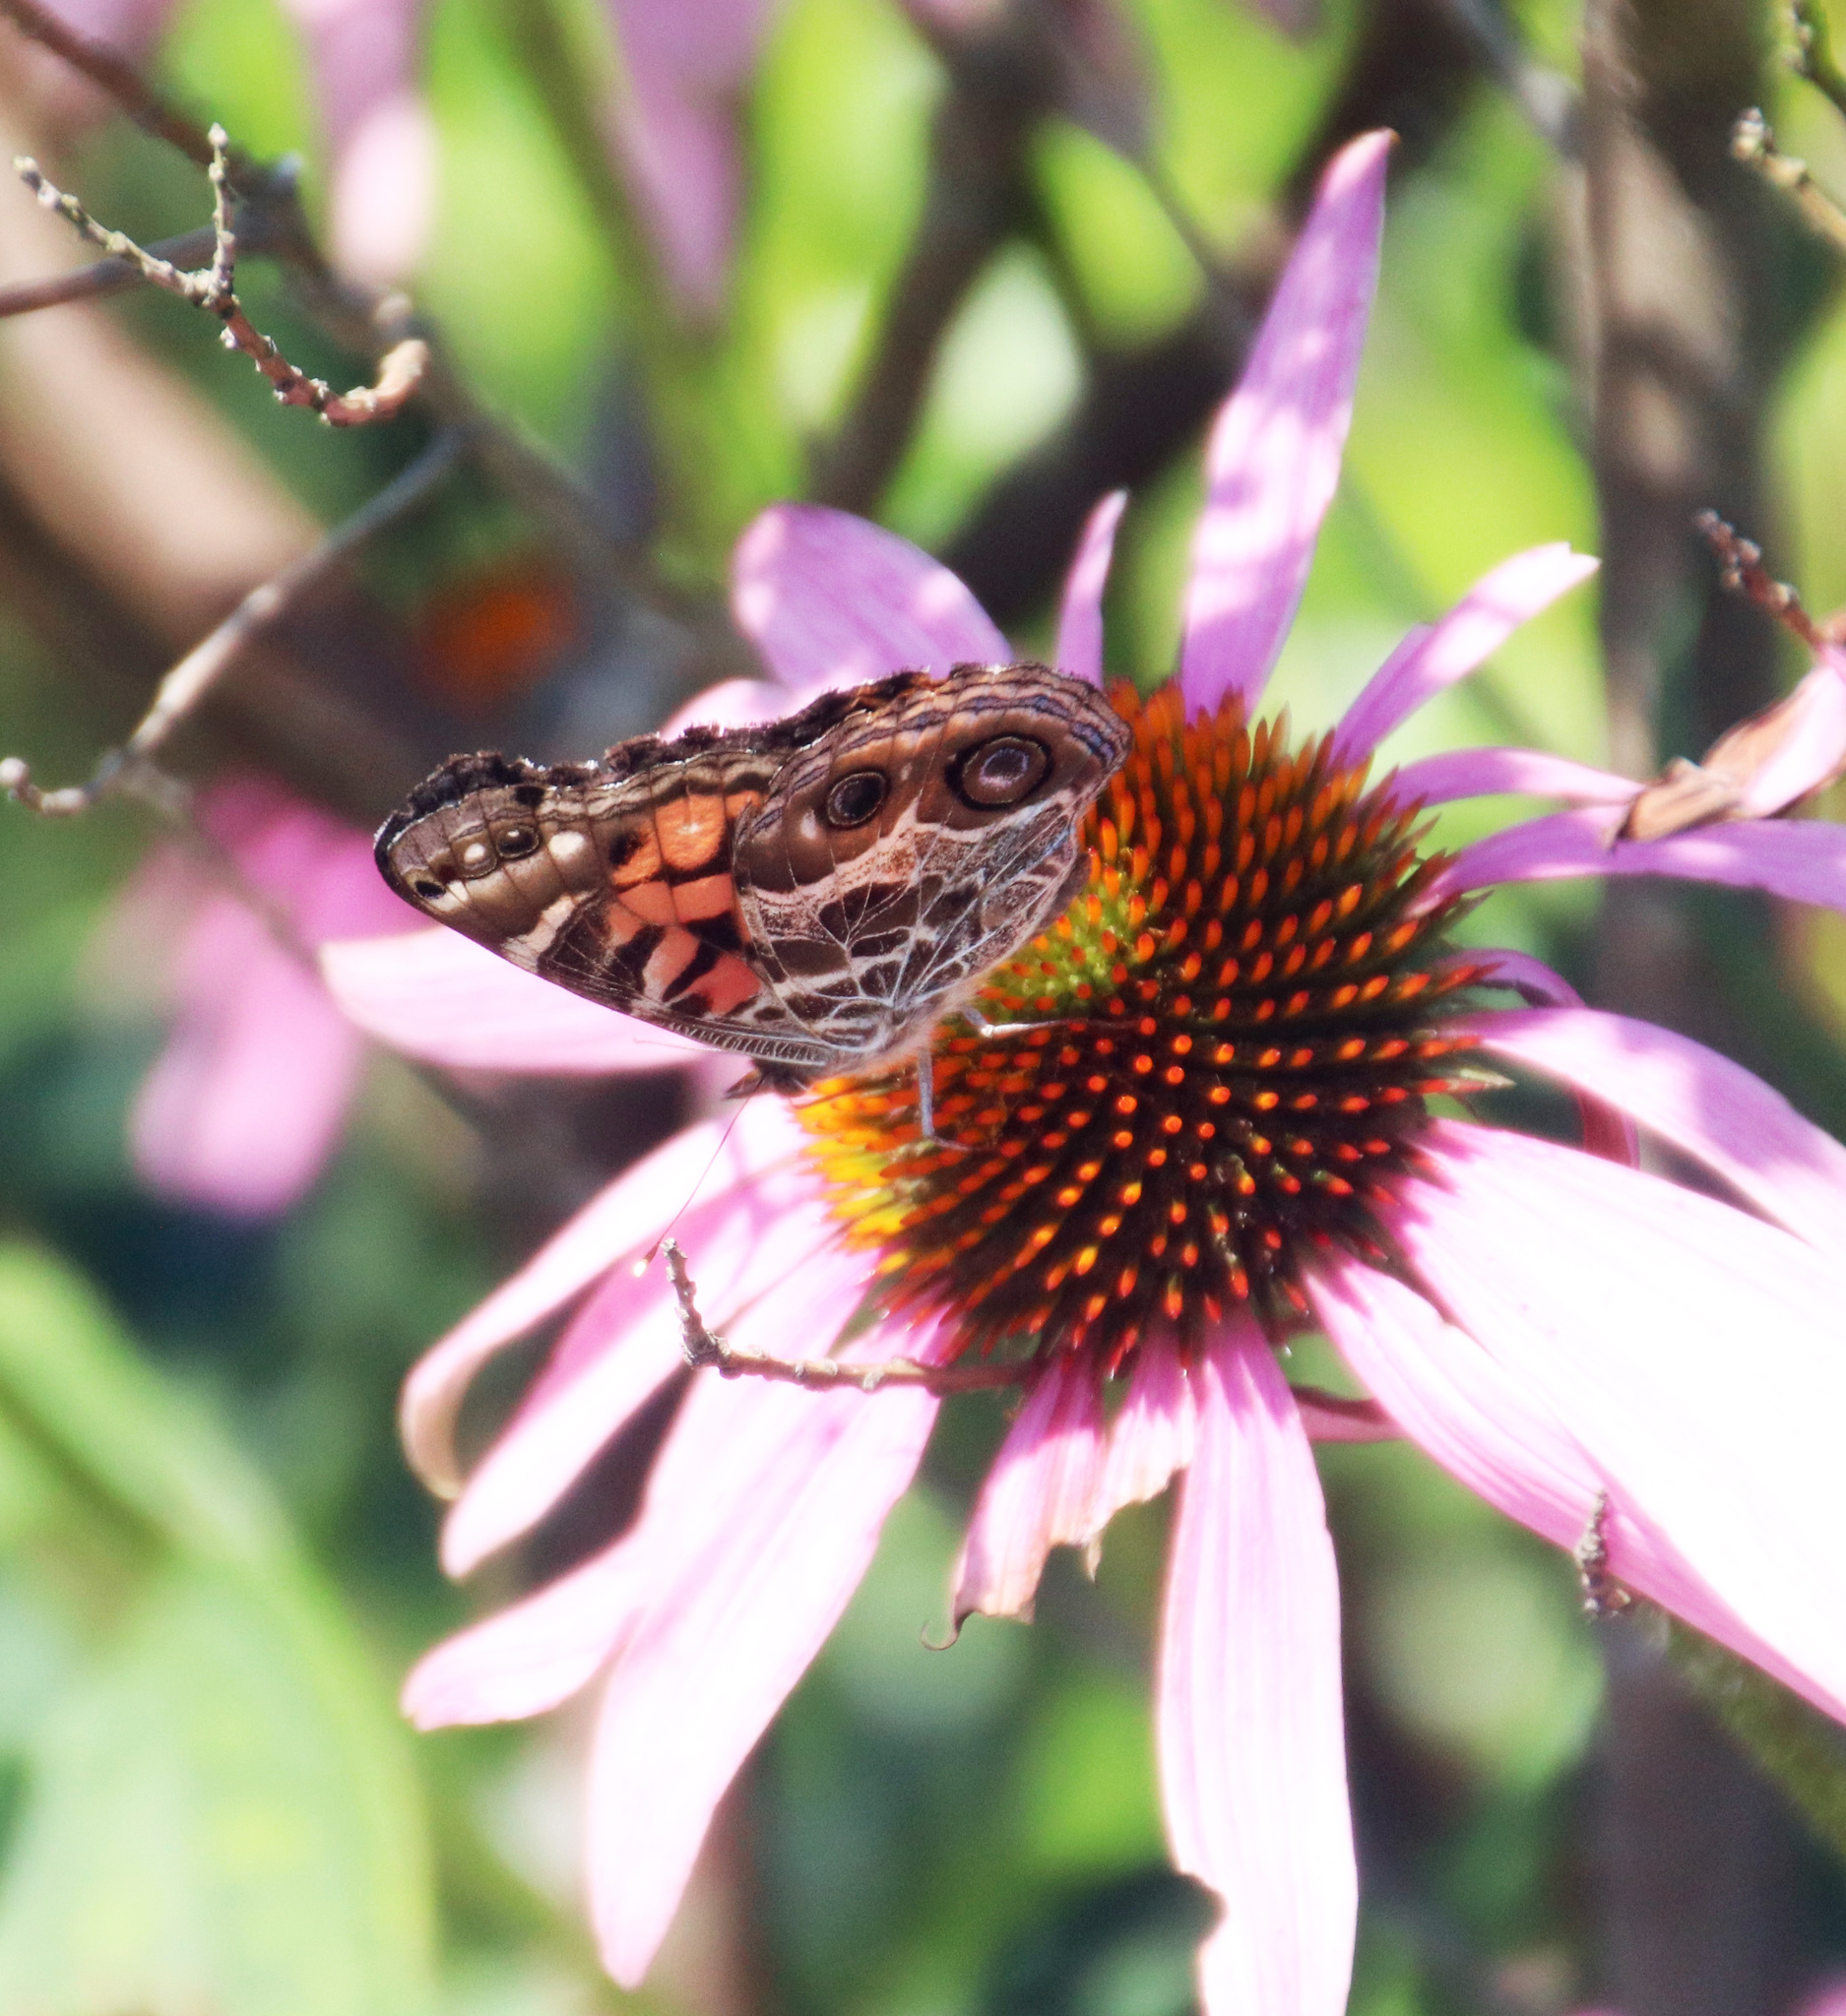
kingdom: Animalia
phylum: Arthropoda
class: Insecta
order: Lepidoptera
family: Nymphalidae
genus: Vanessa
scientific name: Vanessa virginiensis
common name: American lady
